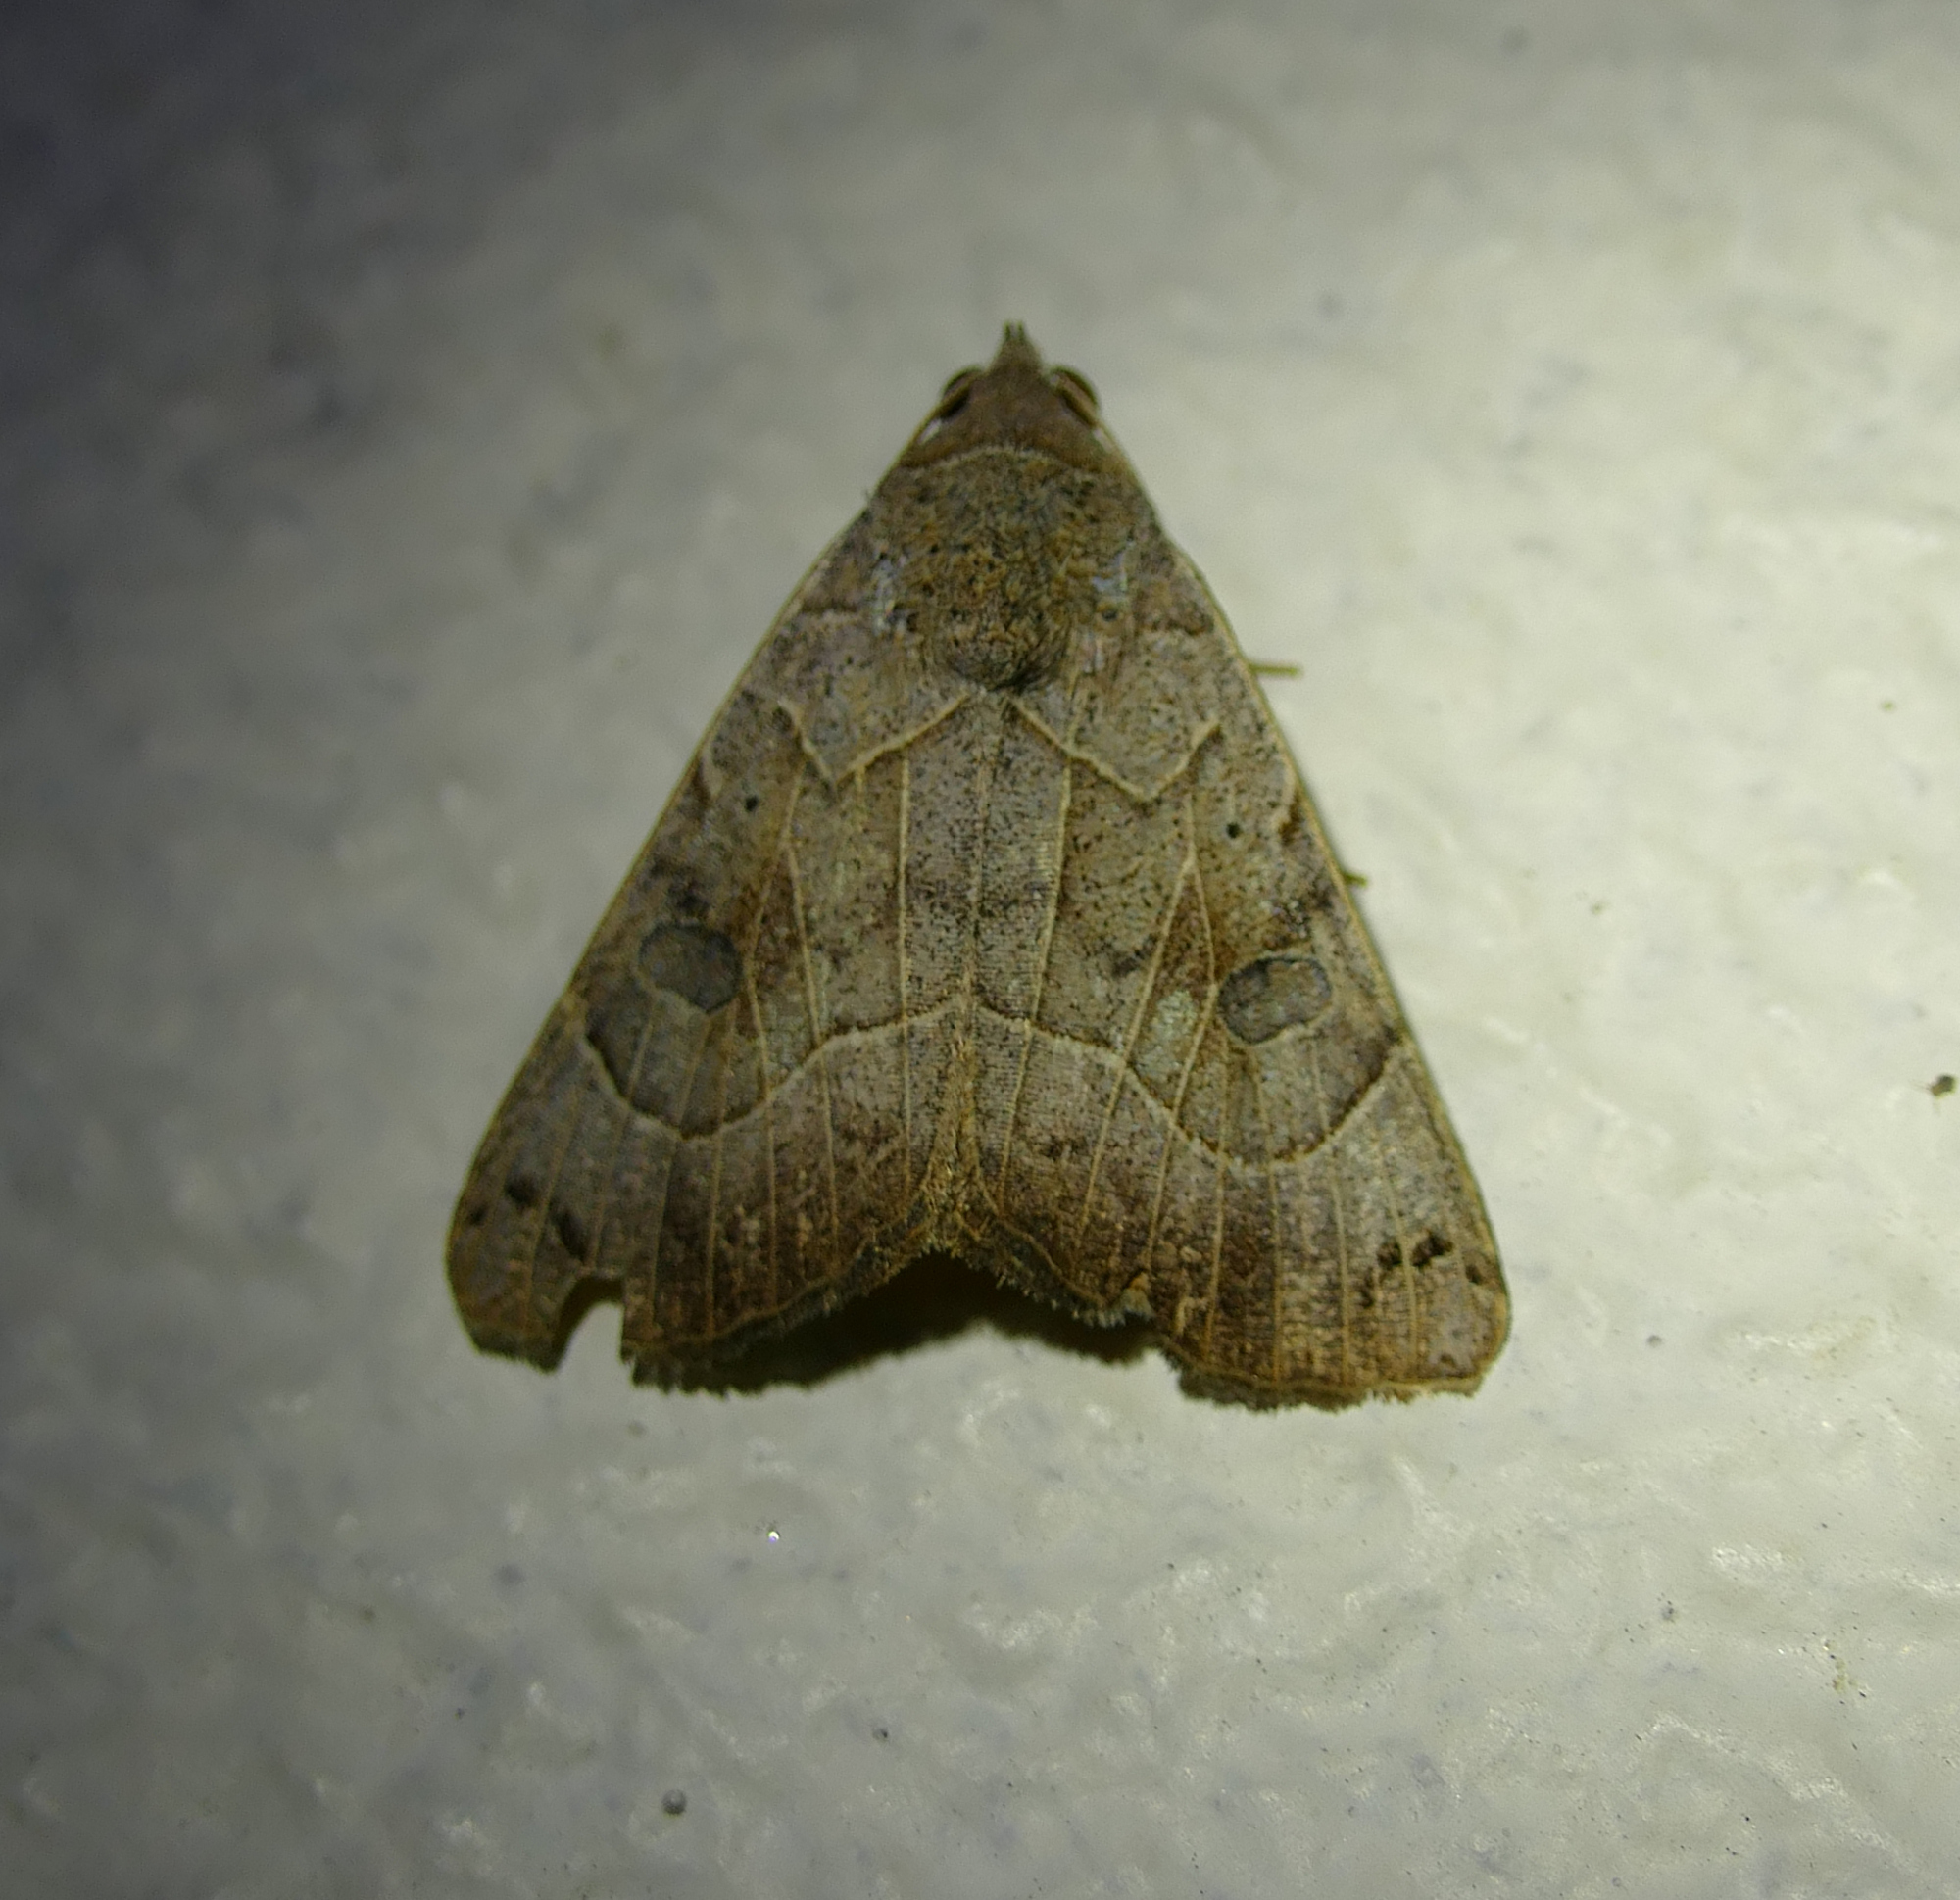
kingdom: Animalia
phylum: Arthropoda
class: Insecta
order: Lepidoptera
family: Erebidae
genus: Isogona
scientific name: Isogona scindens
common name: Owlet moth
